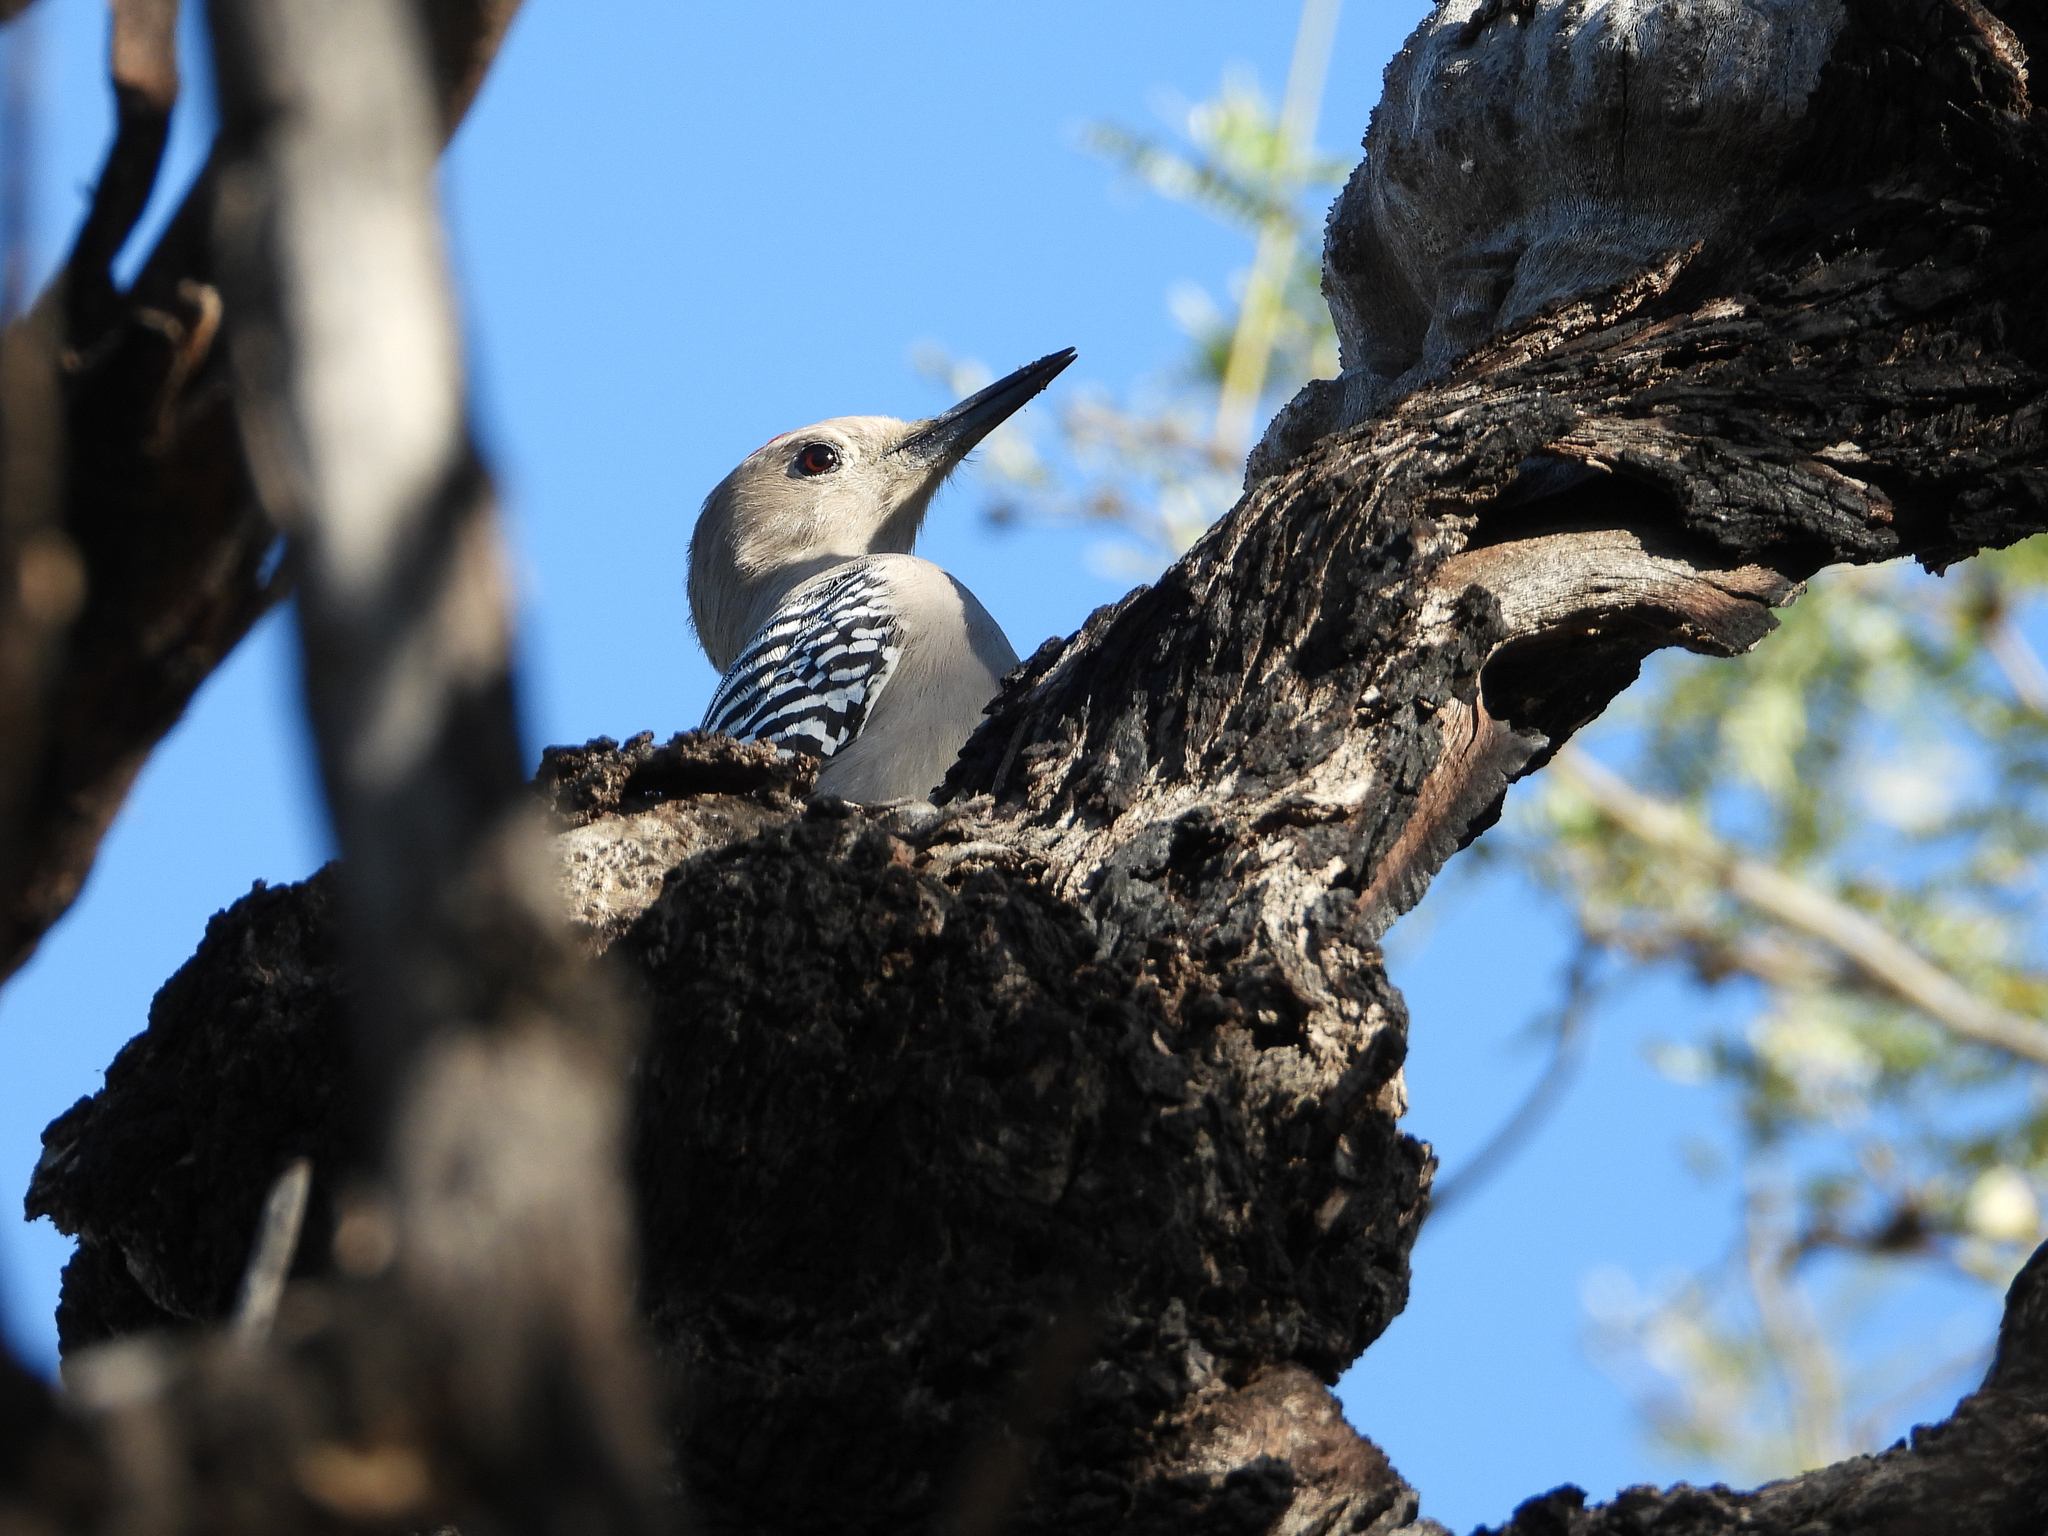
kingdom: Animalia
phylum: Chordata
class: Aves
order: Piciformes
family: Picidae
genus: Melanerpes
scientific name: Melanerpes uropygialis
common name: Gila woodpecker
